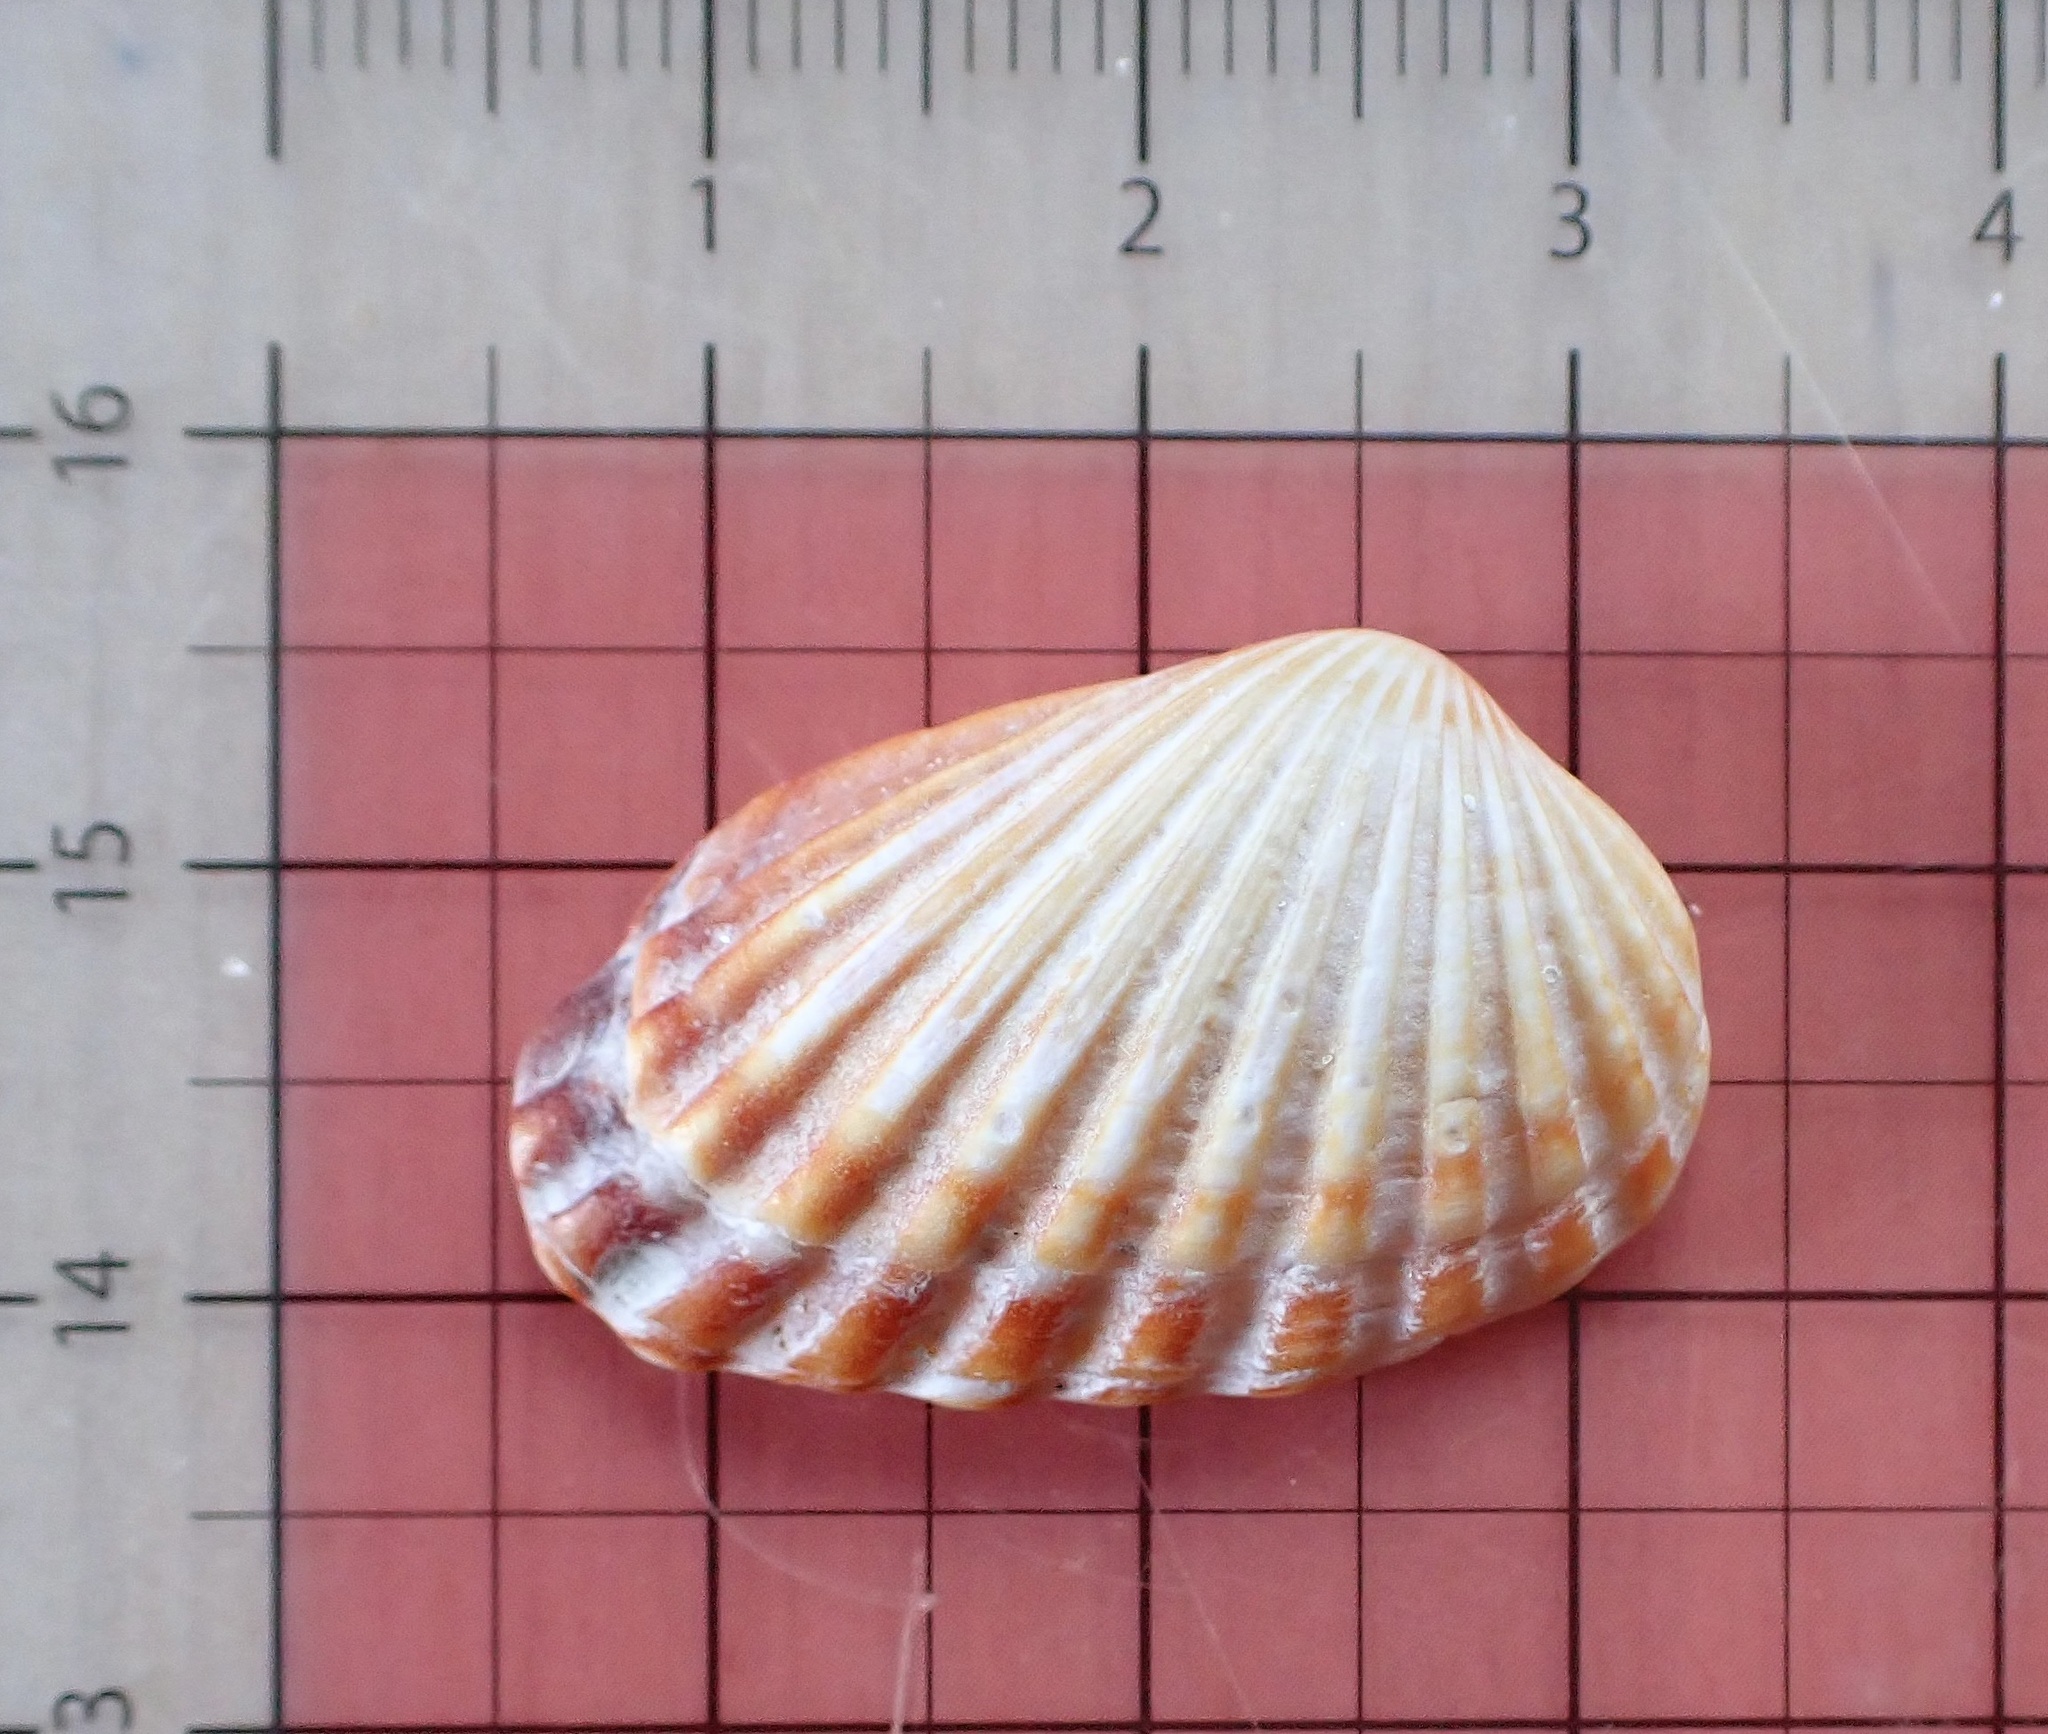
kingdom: Animalia
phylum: Mollusca
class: Bivalvia
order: Carditida
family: Carditidae
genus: Cardites
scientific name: Cardites floridanus
